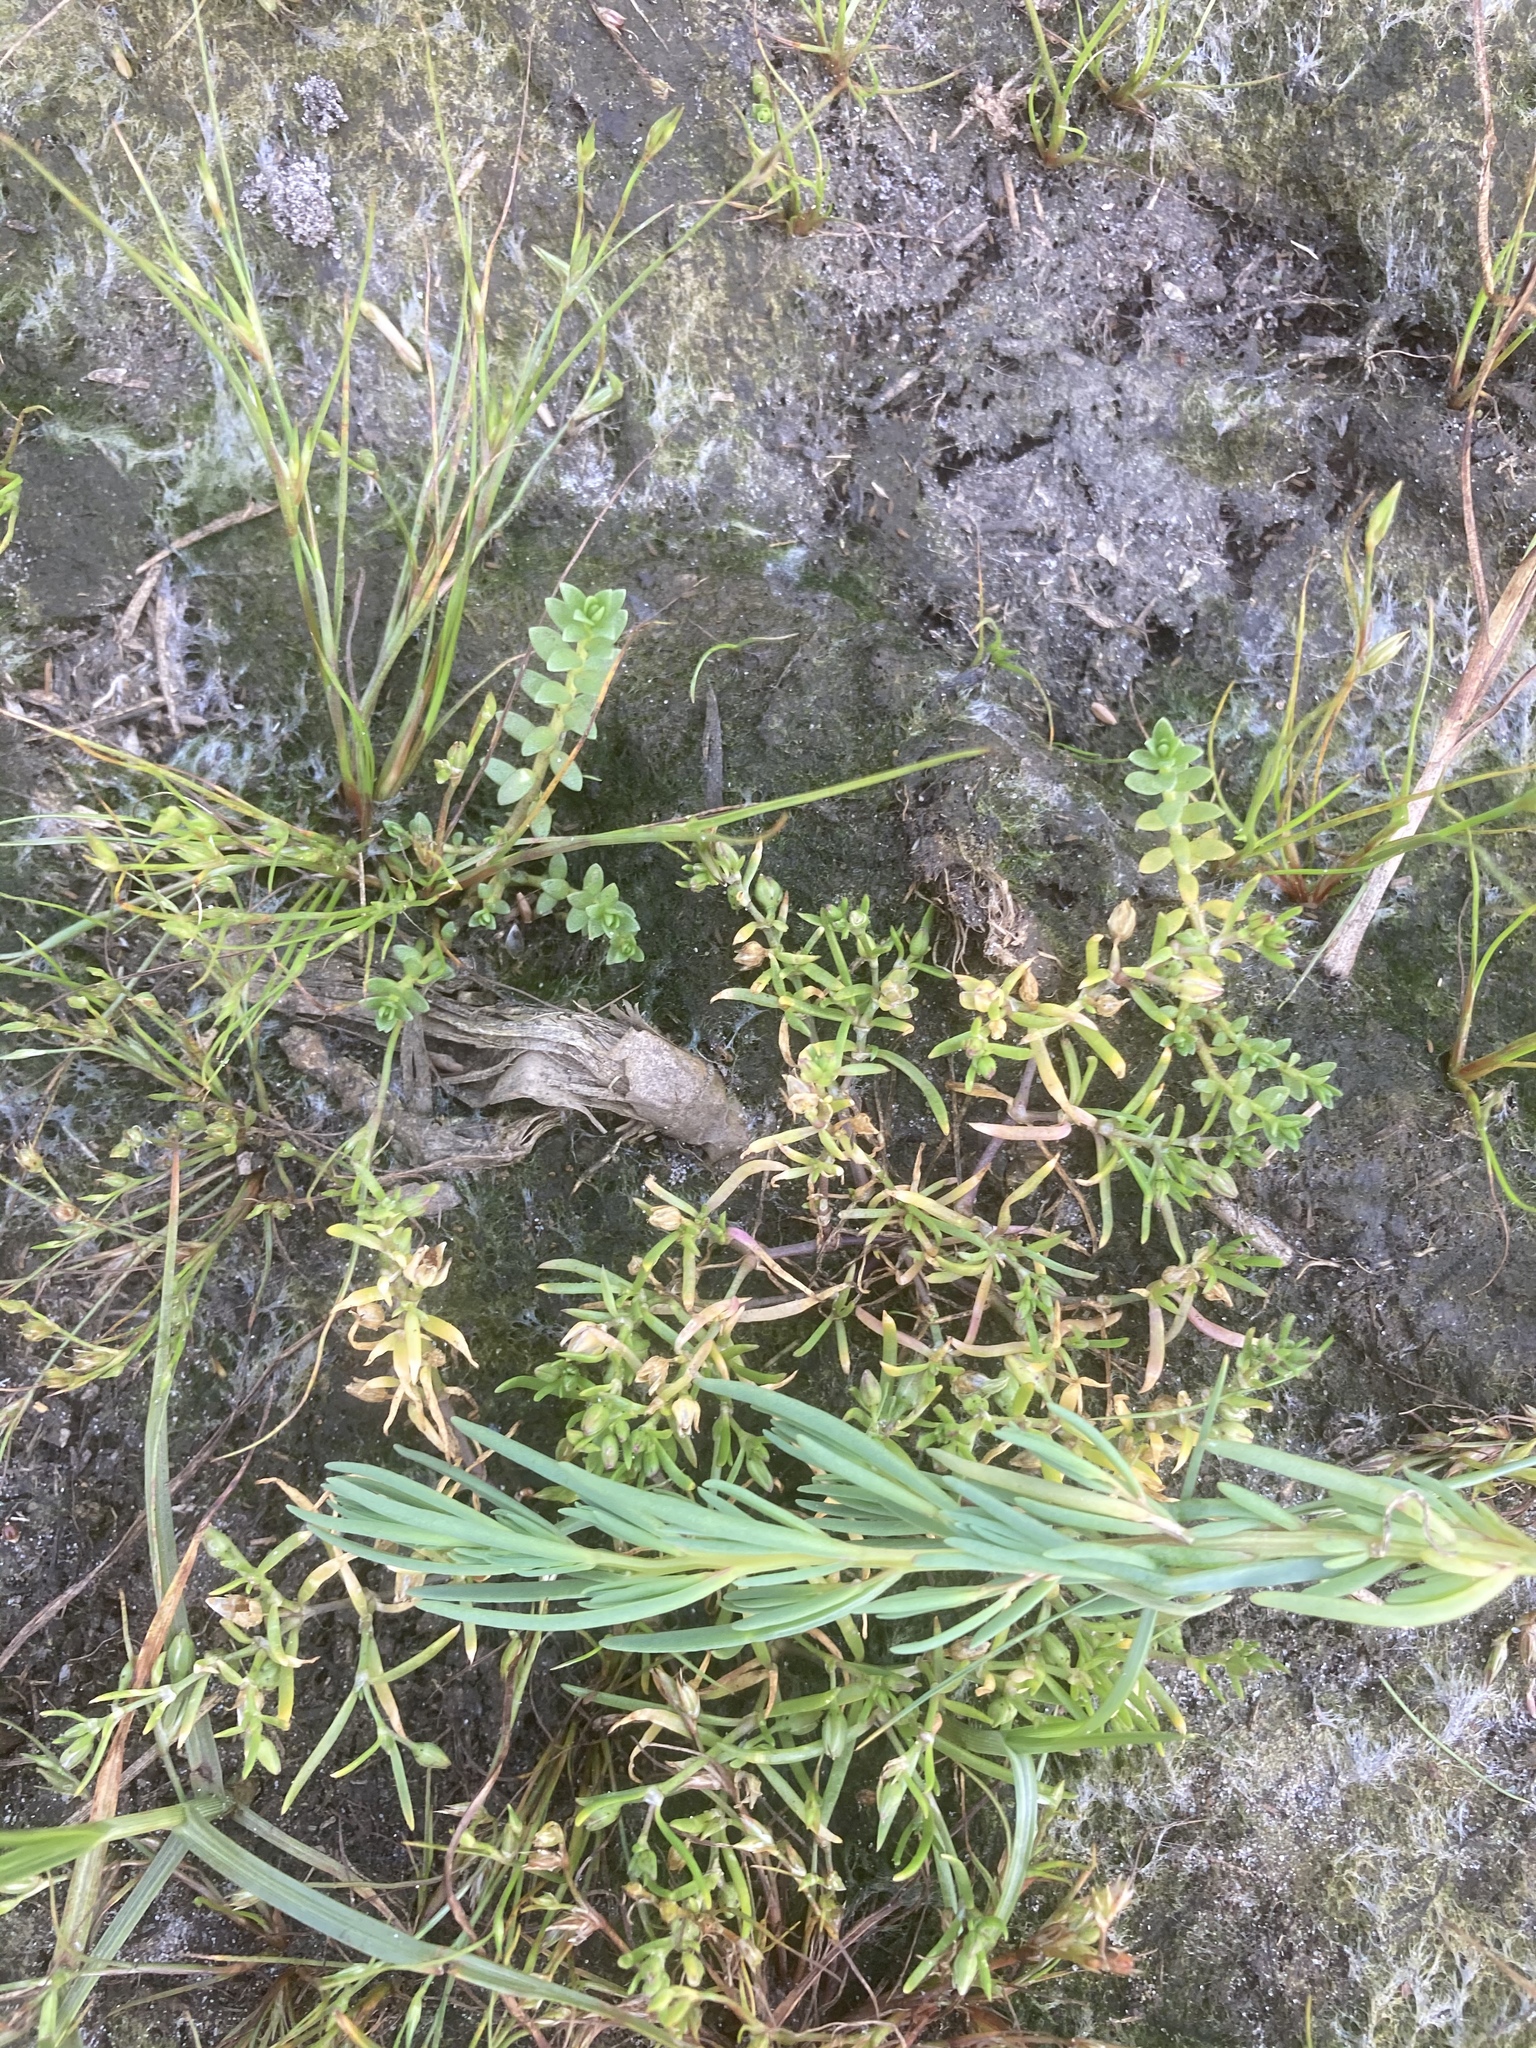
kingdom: Plantae
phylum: Tracheophyta
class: Magnoliopsida
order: Ericales
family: Primulaceae
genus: Lysimachia
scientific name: Lysimachia maritima
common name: Sea milkwort
